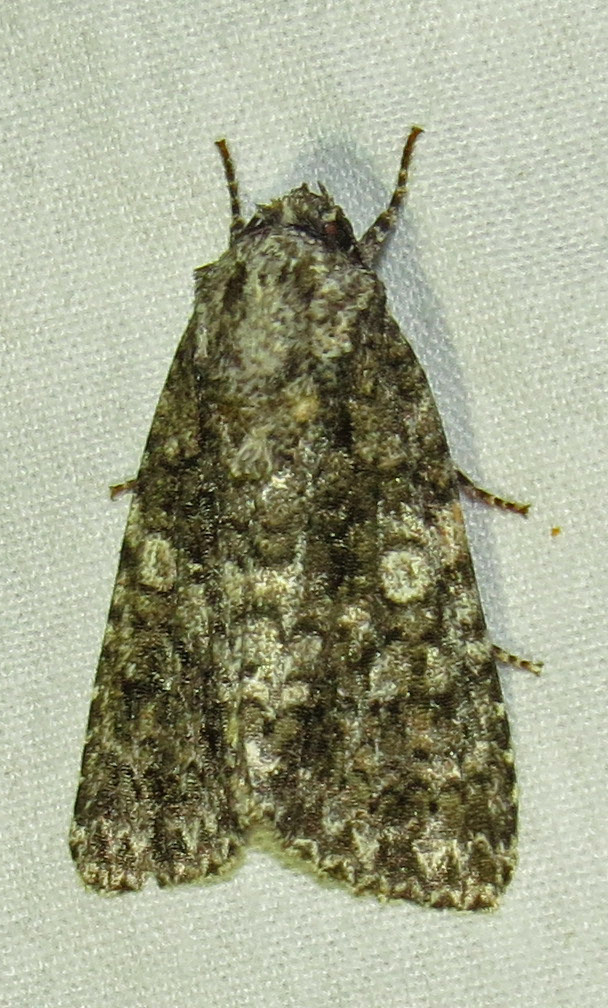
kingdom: Animalia
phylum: Arthropoda
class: Insecta
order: Lepidoptera
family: Noctuidae
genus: Acronicta
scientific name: Acronicta afflicta
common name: Afflicted dagger moth
